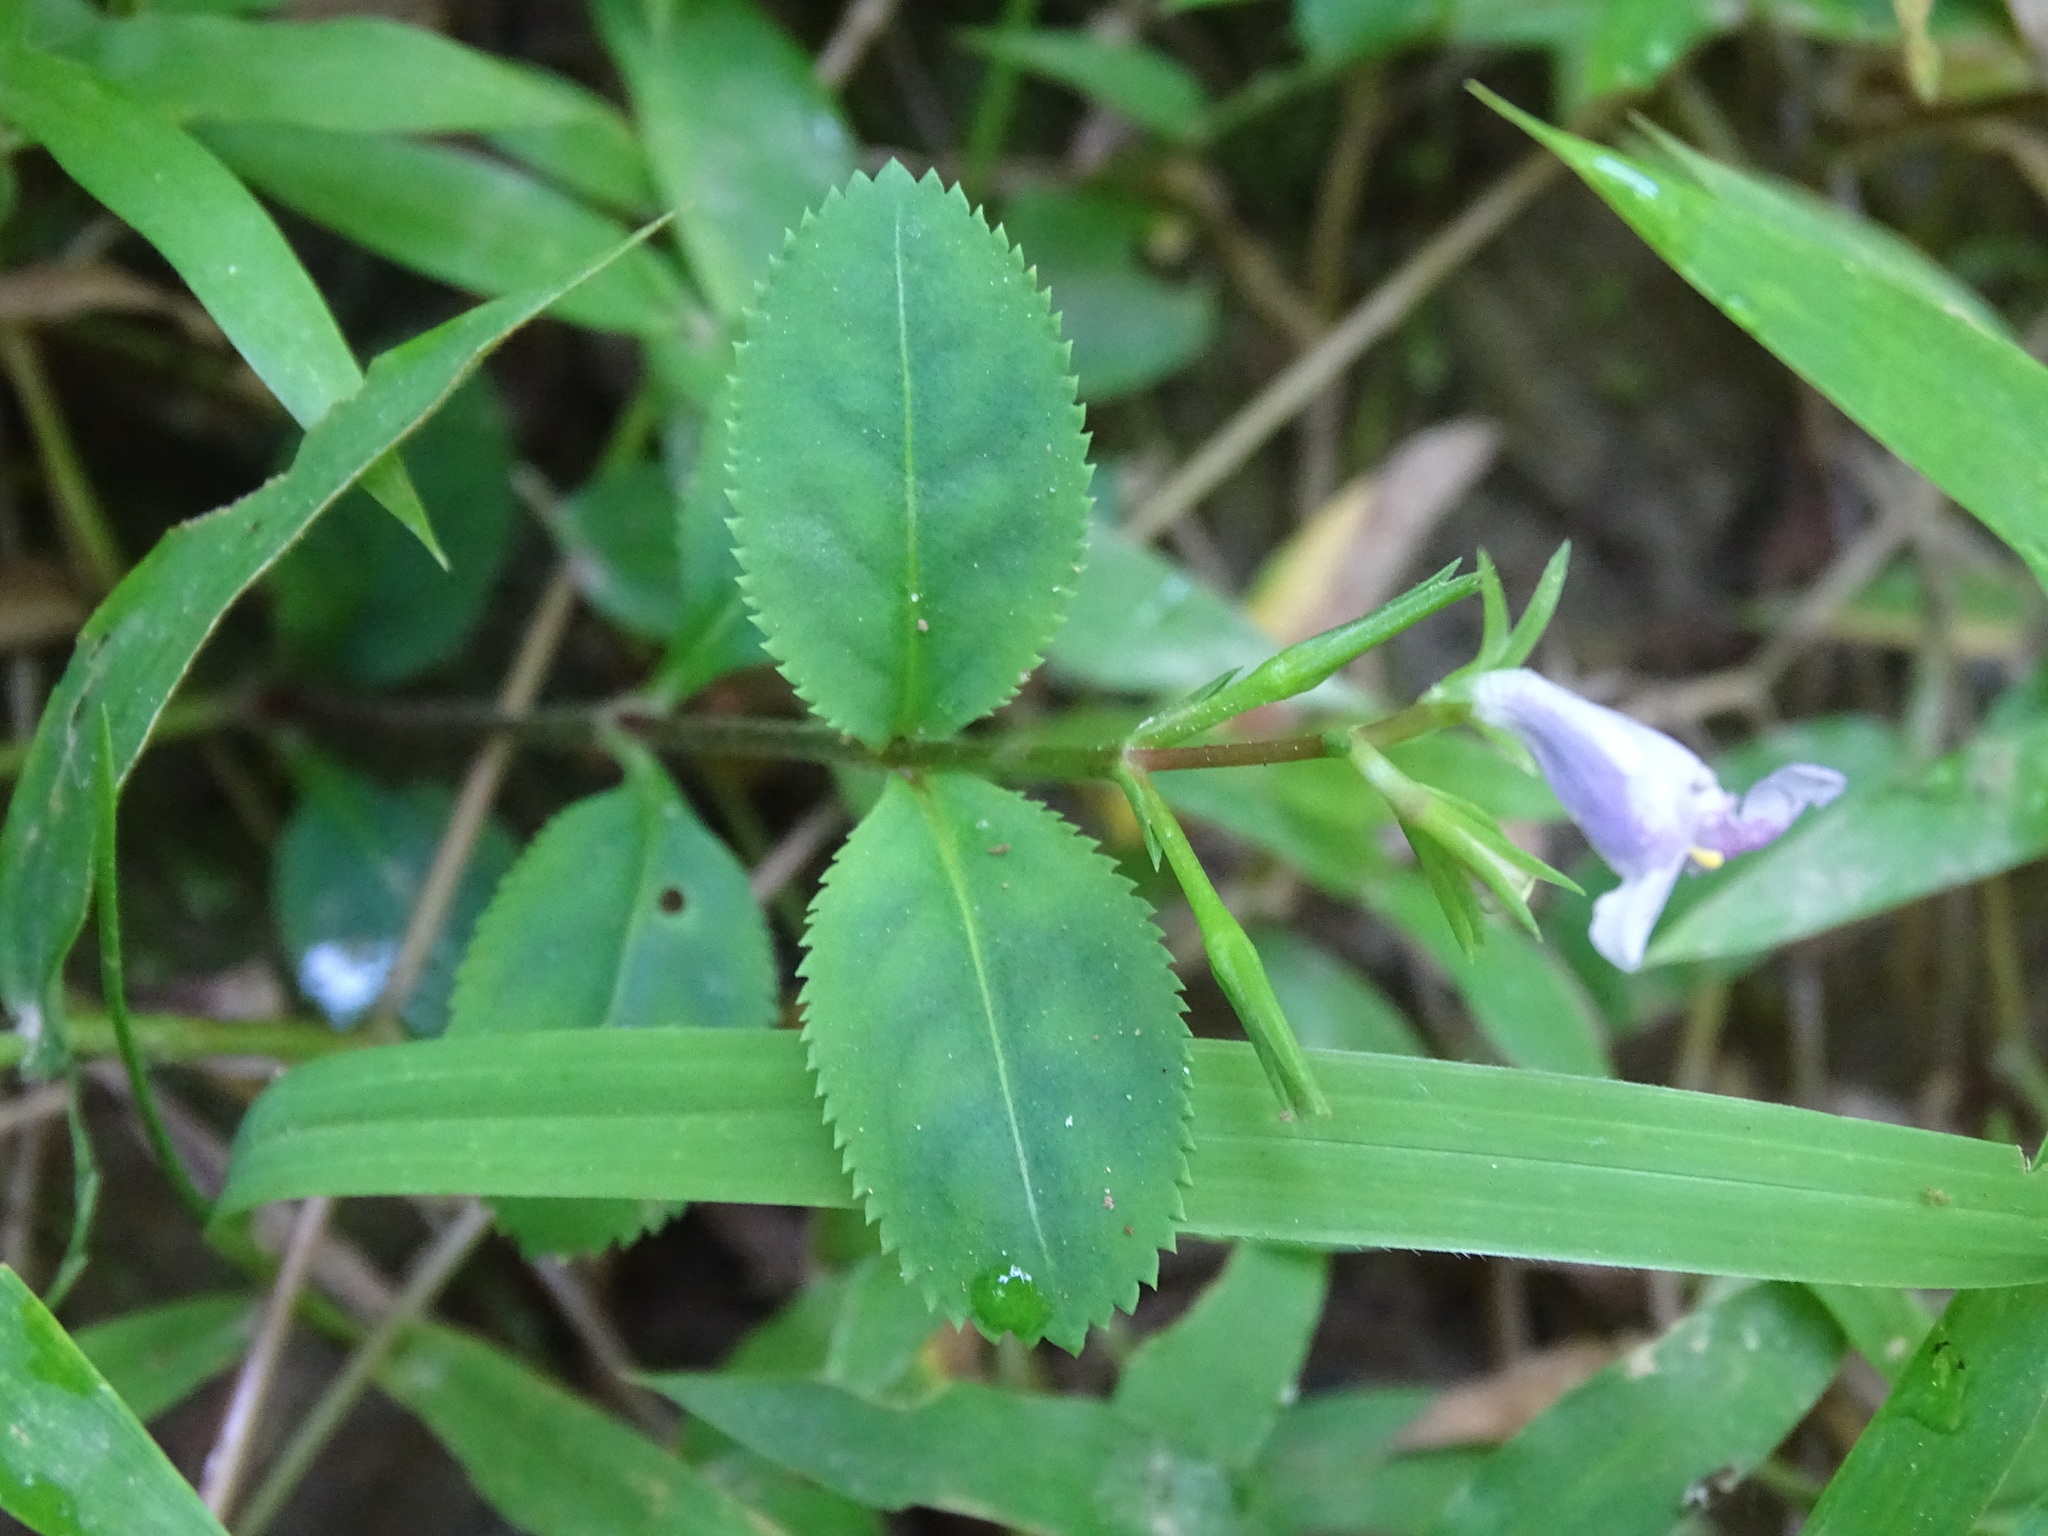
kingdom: Plantae
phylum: Tracheophyta
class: Magnoliopsida
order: Lamiales
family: Linderniaceae
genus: Bonnaya
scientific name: Bonnaya ruelloides
